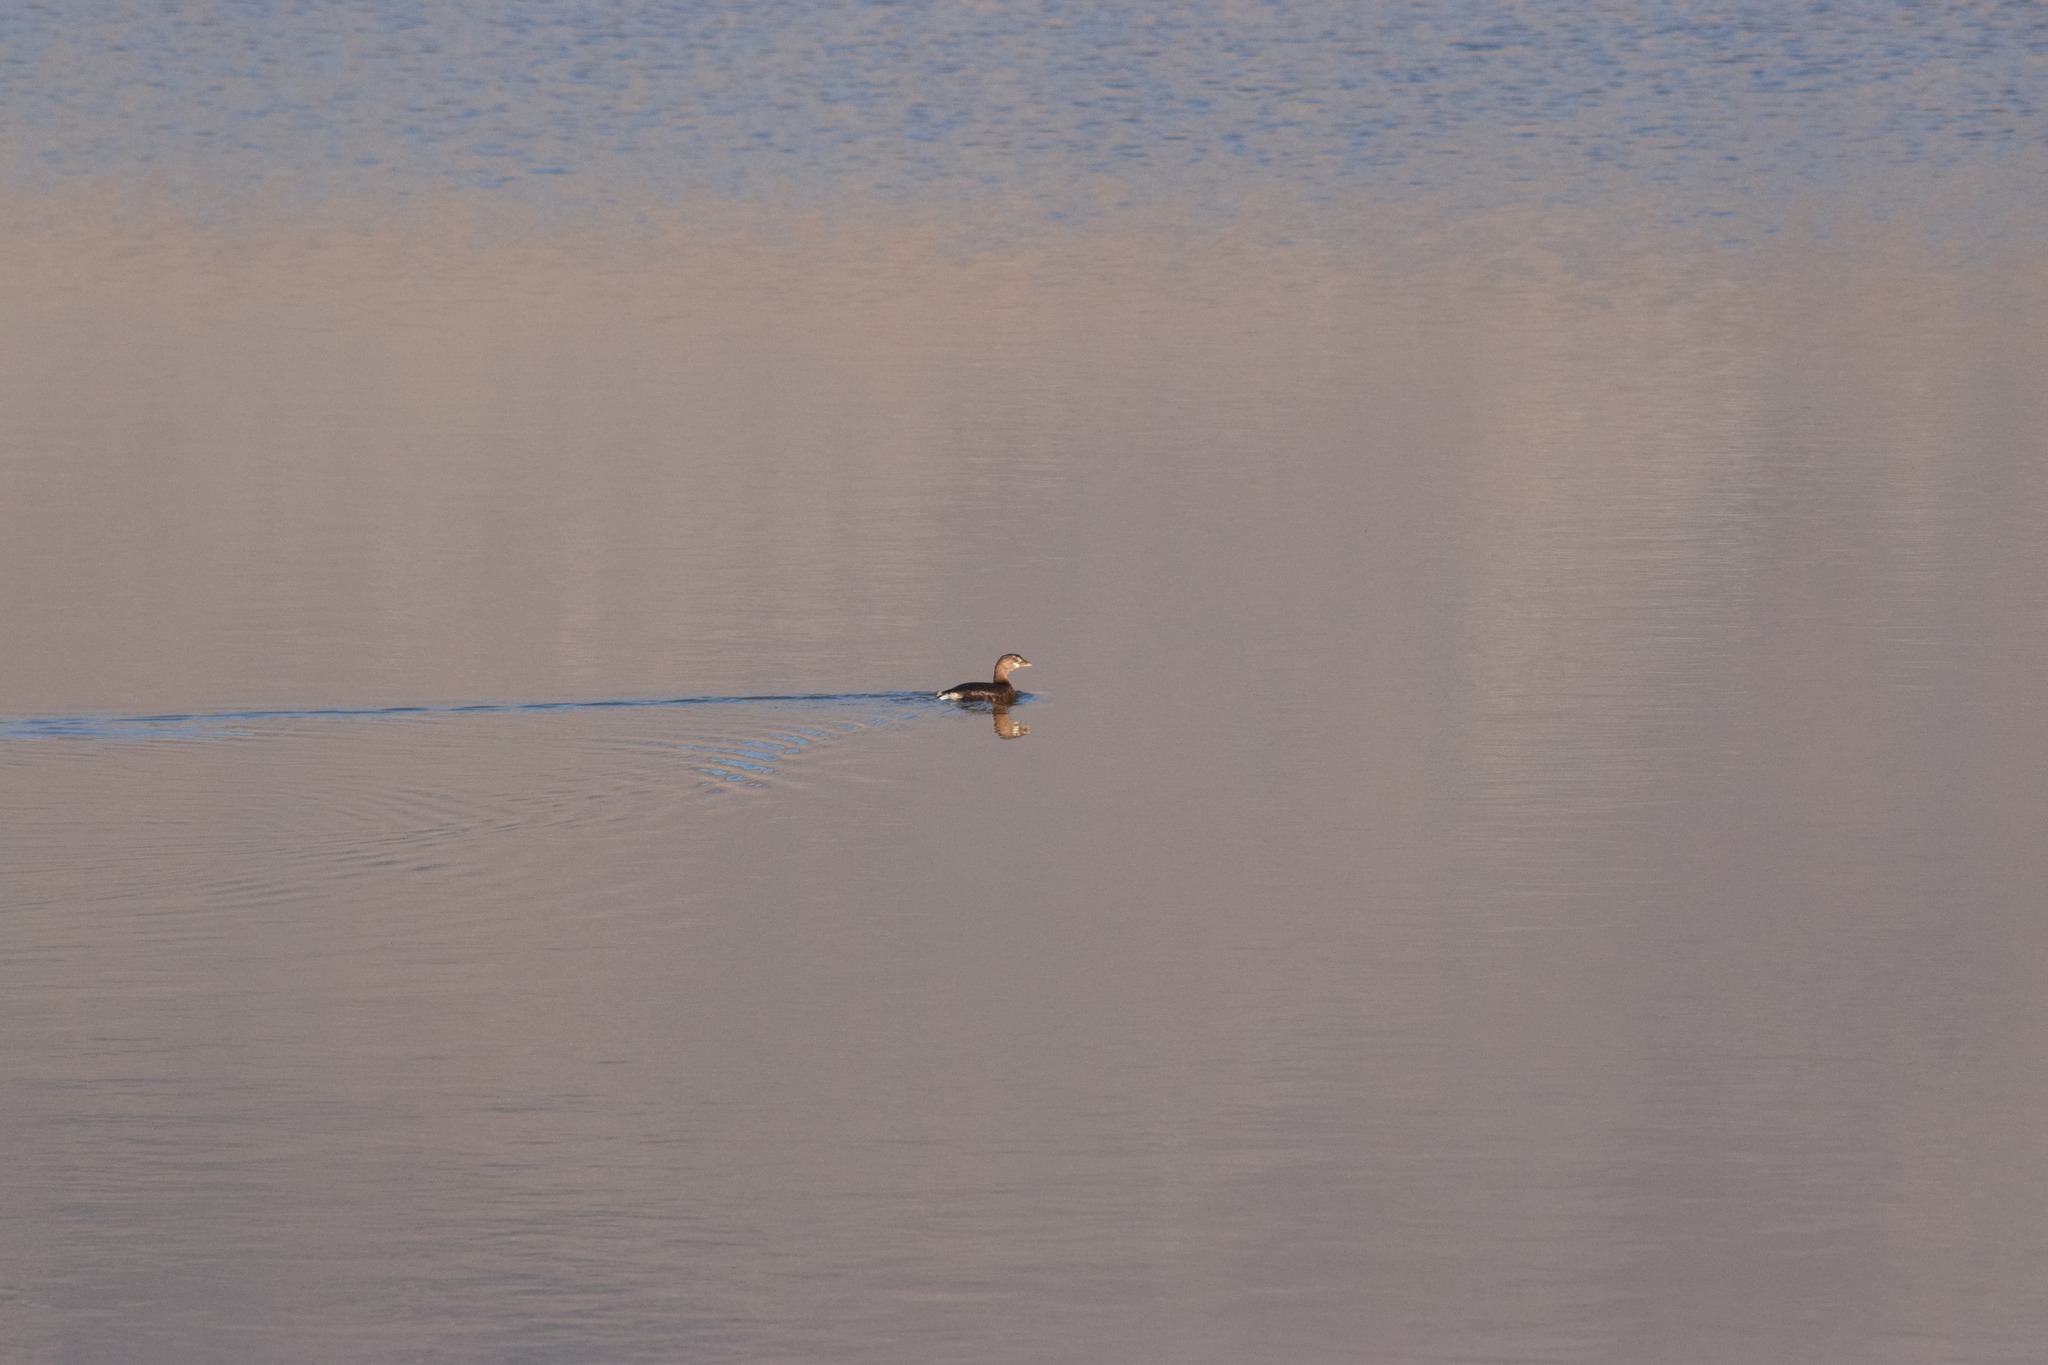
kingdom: Animalia
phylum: Chordata
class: Aves
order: Podicipediformes
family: Podicipedidae
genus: Podilymbus
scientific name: Podilymbus podiceps
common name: Pied-billed grebe
